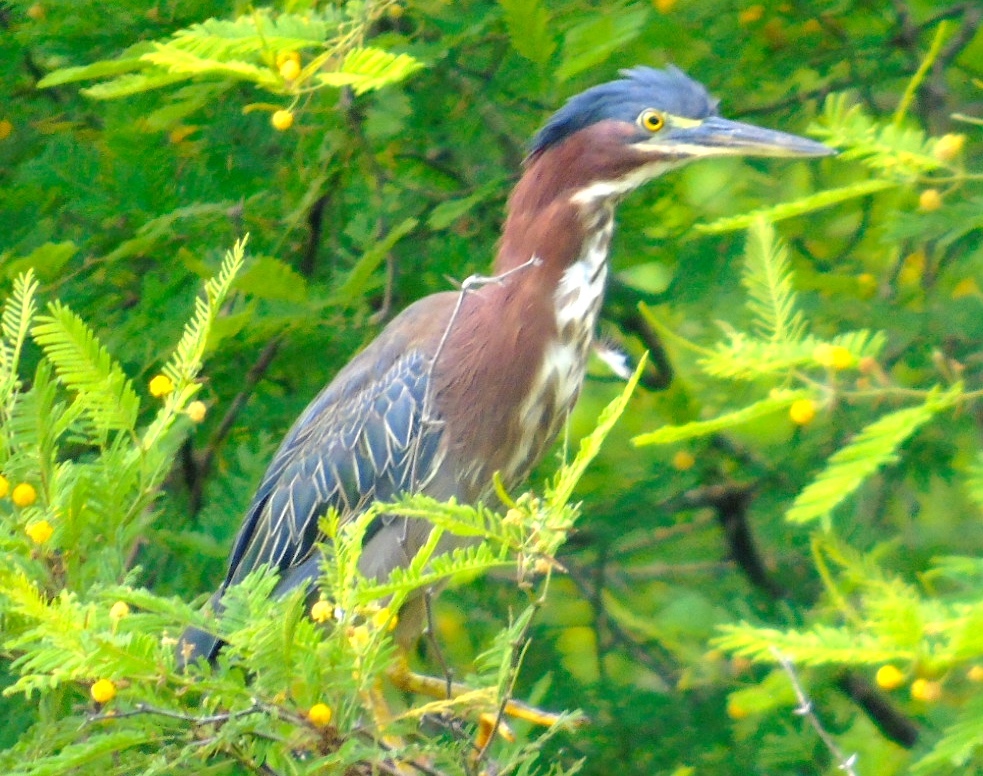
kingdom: Animalia
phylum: Chordata
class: Aves
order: Pelecaniformes
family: Ardeidae
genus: Butorides
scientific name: Butorides virescens
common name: Green heron
